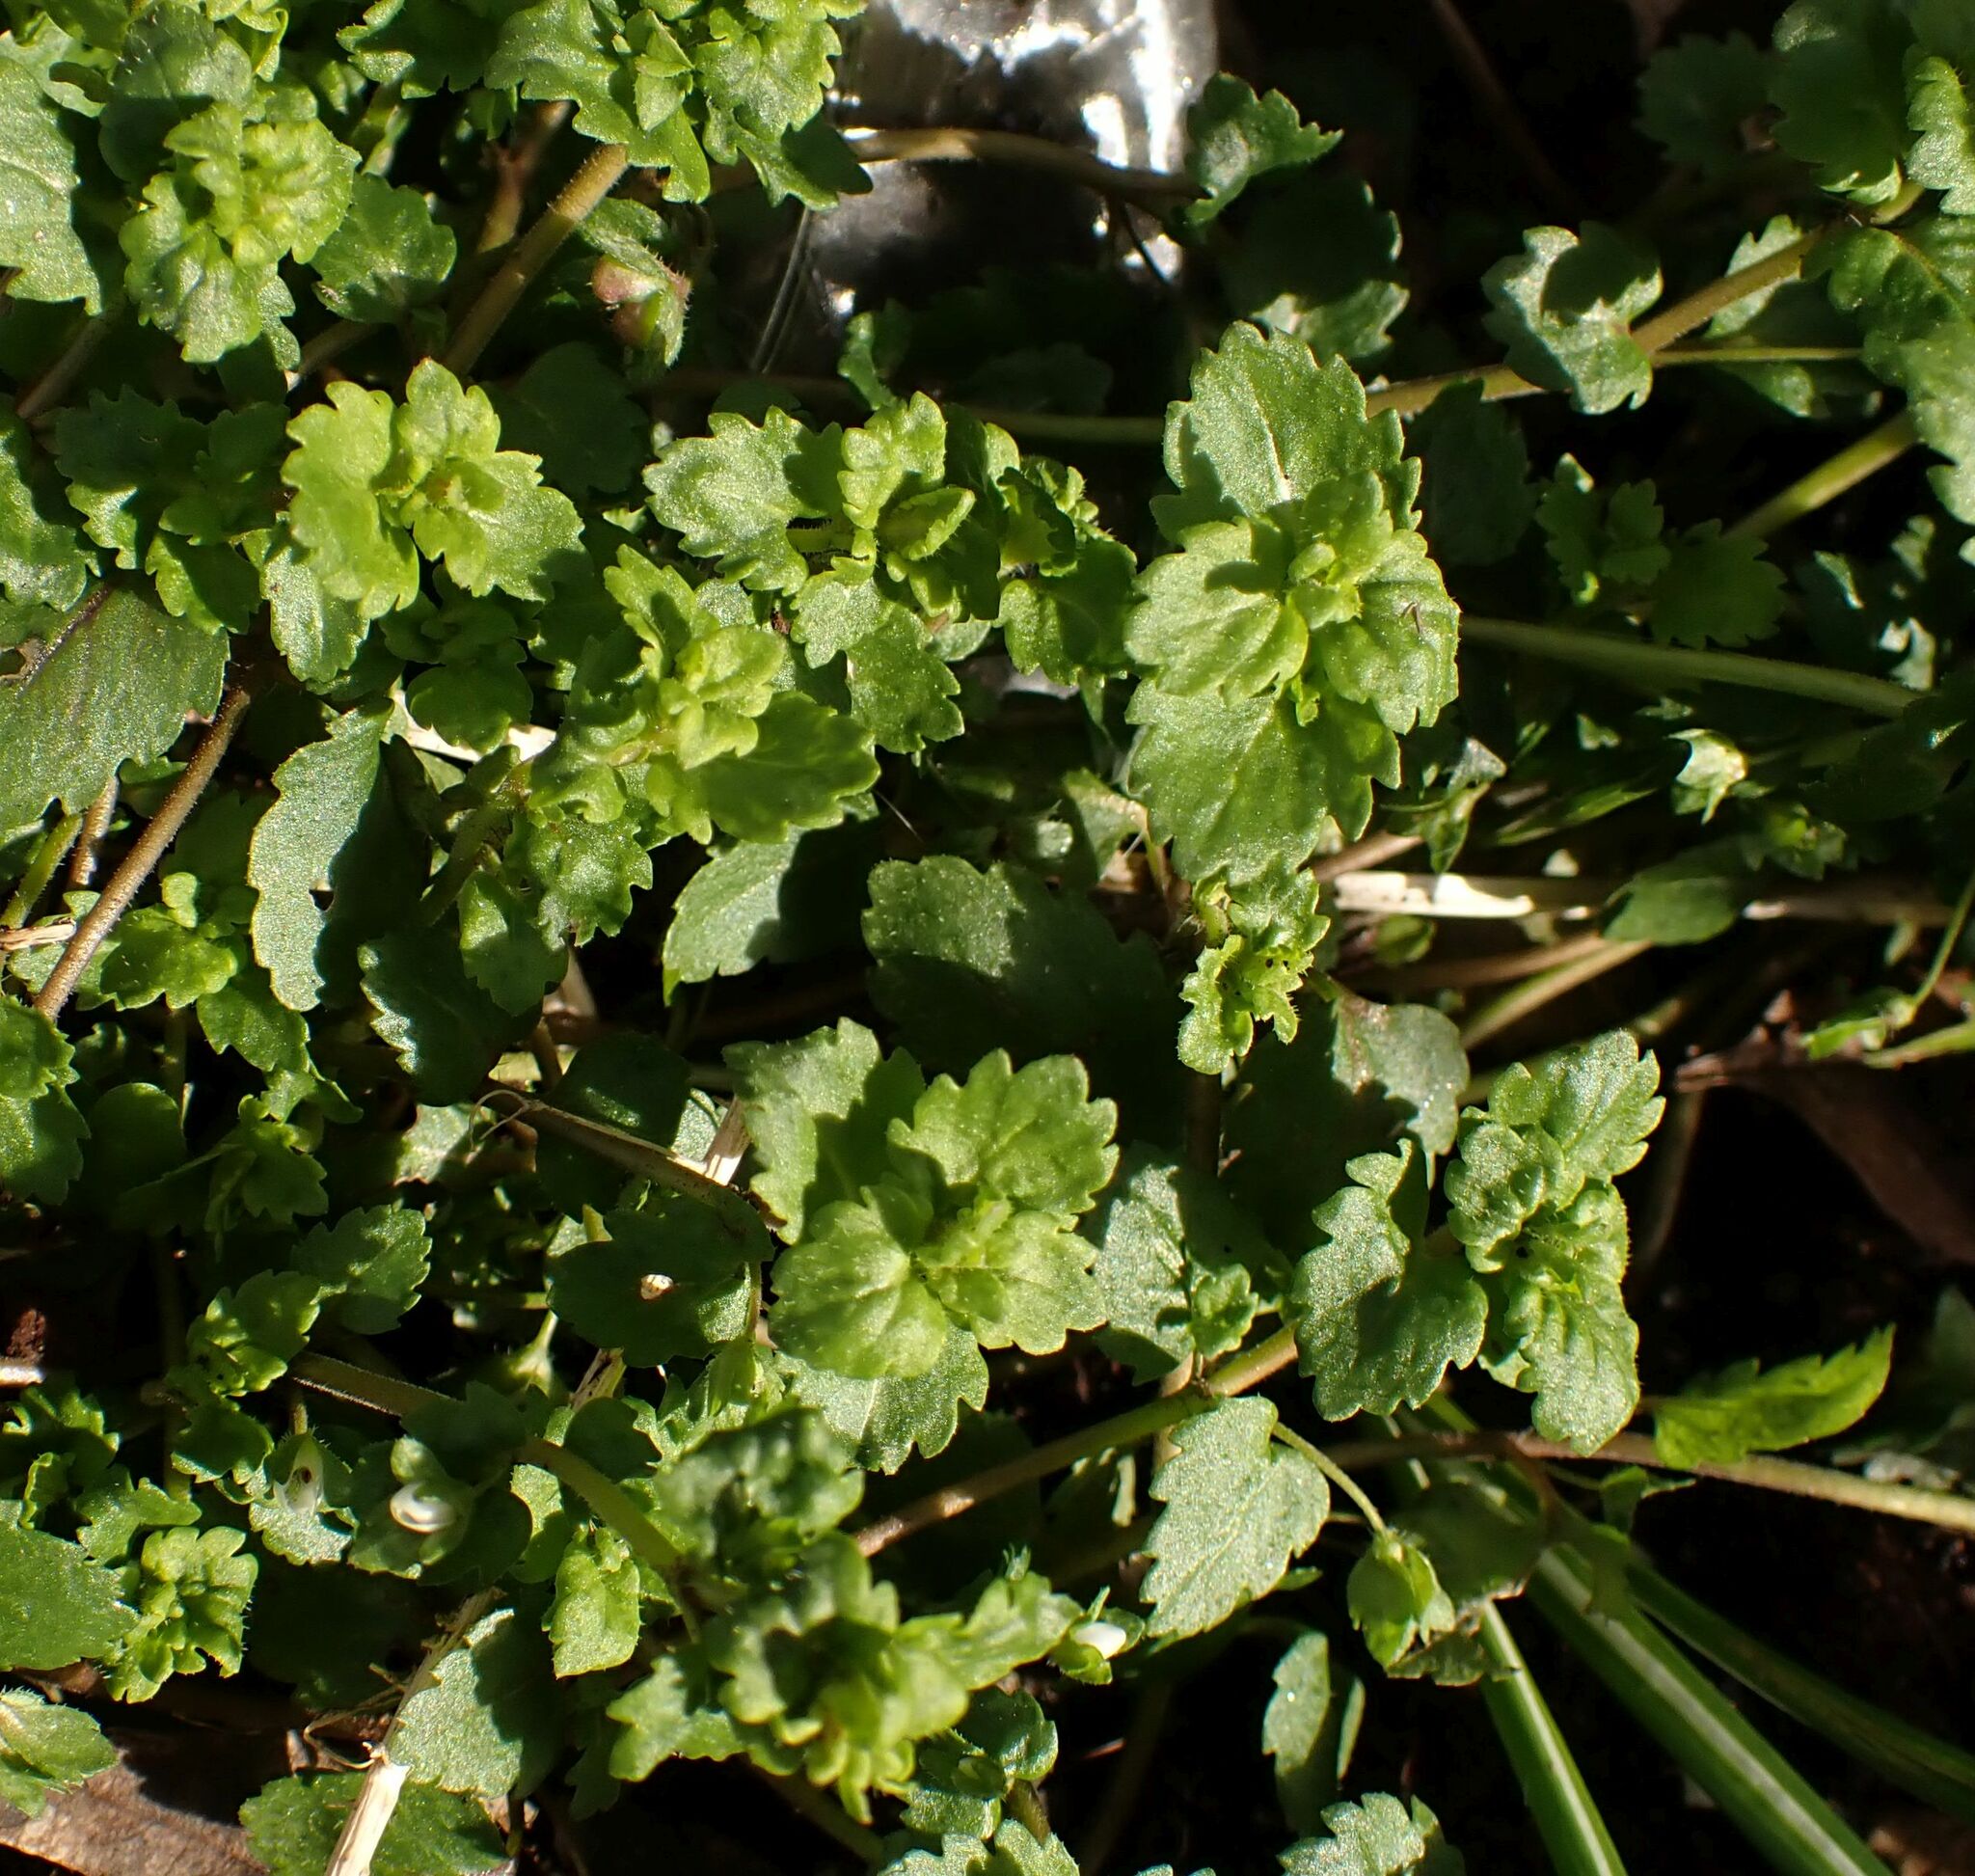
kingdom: Plantae
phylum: Tracheophyta
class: Magnoliopsida
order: Lamiales
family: Plantaginaceae
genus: Veronica
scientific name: Veronica persica
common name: Common field-speedwell
